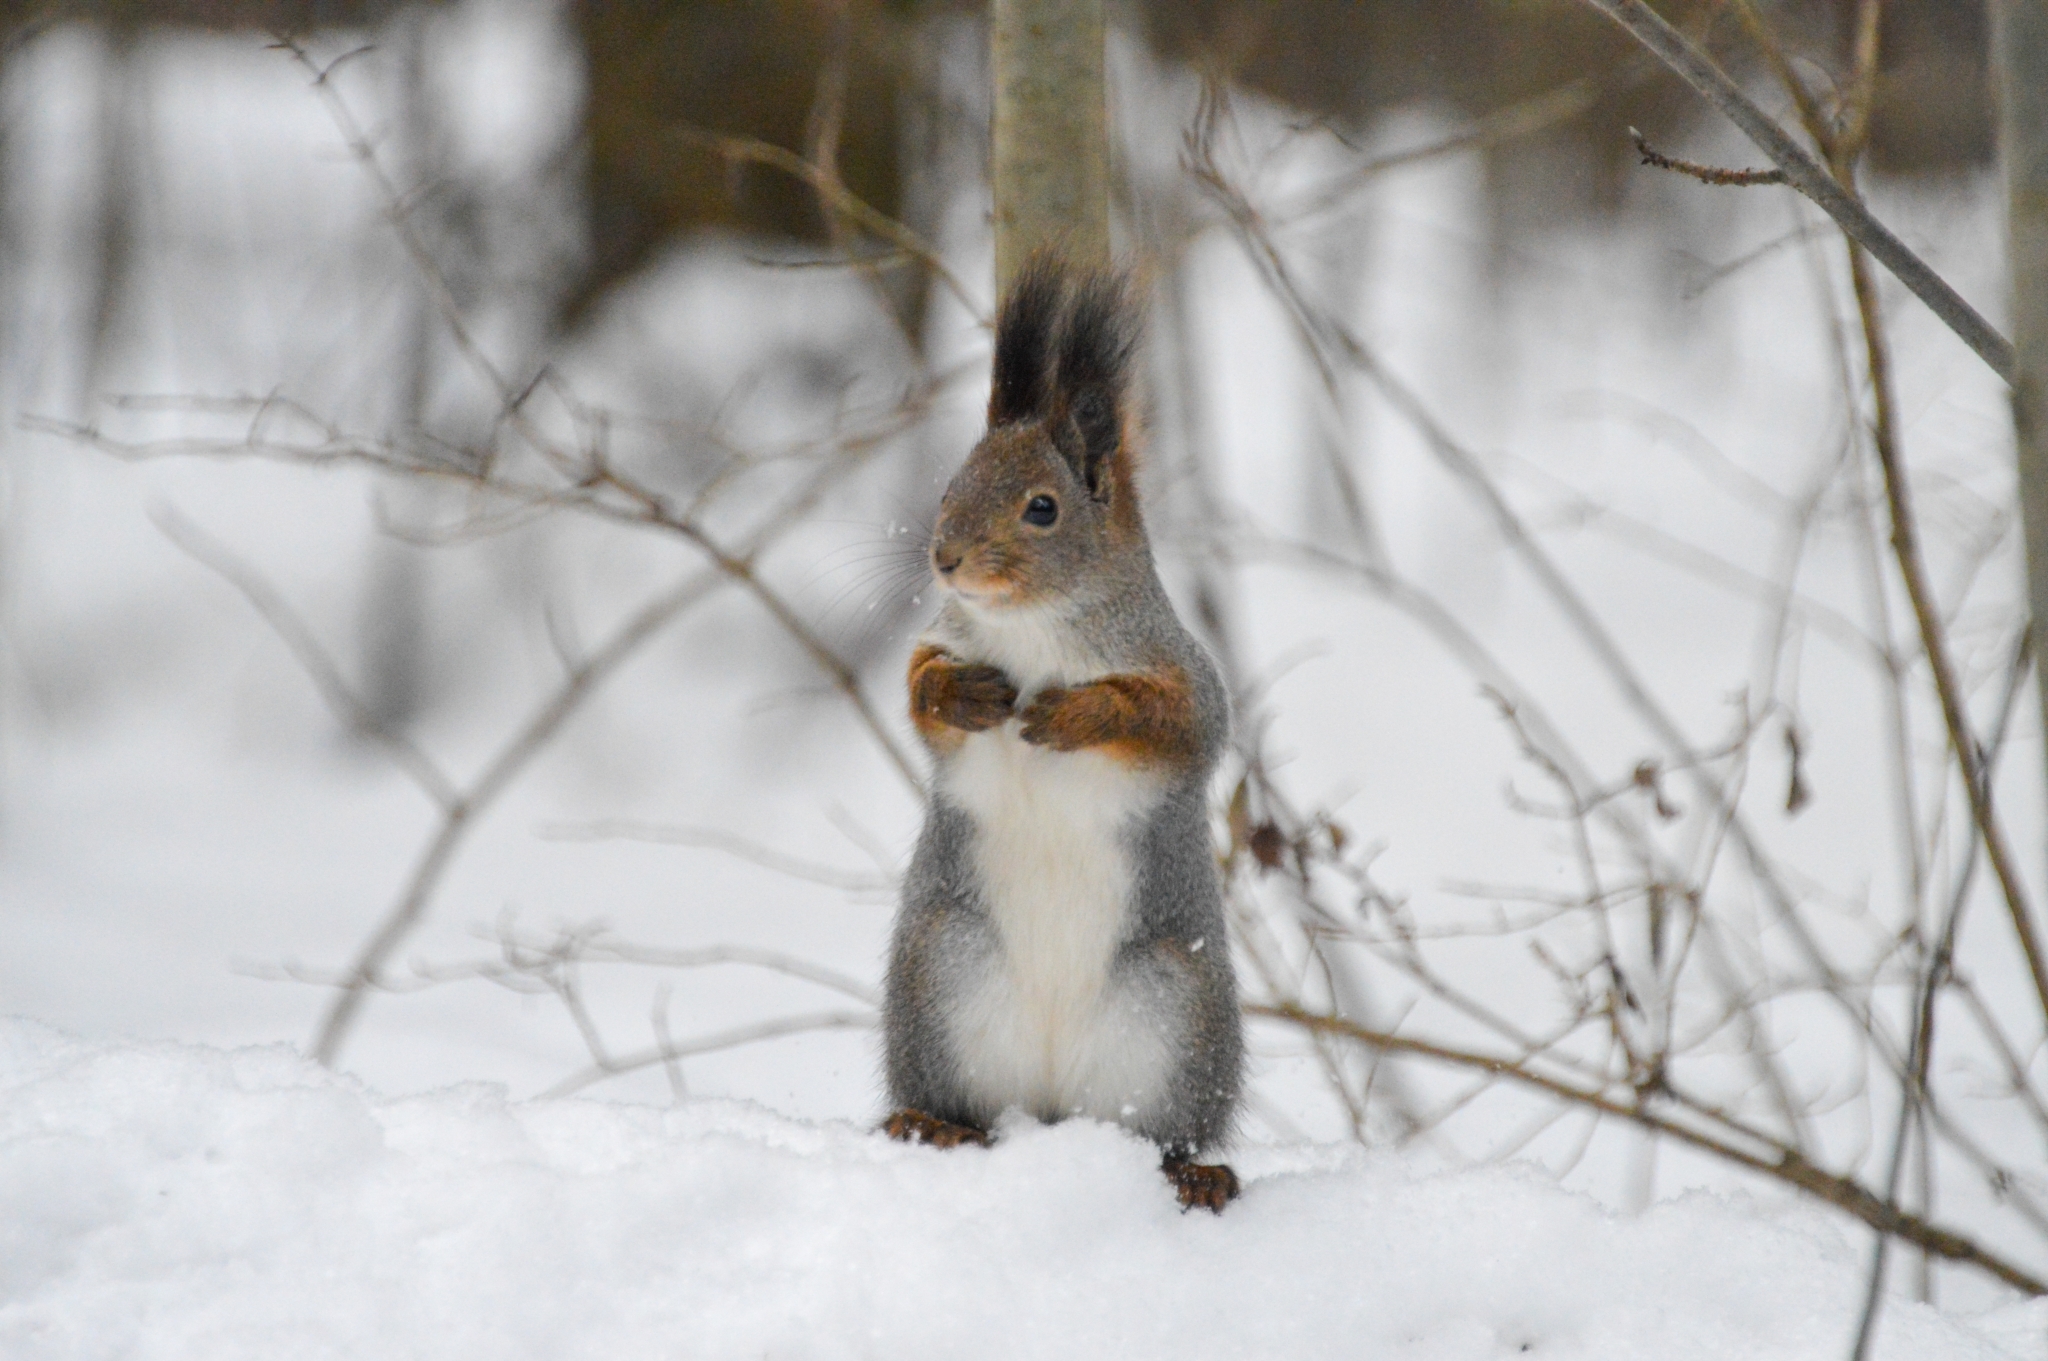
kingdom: Animalia
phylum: Chordata
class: Mammalia
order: Rodentia
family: Sciuridae
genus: Sciurus
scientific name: Sciurus vulgaris
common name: Eurasian red squirrel
